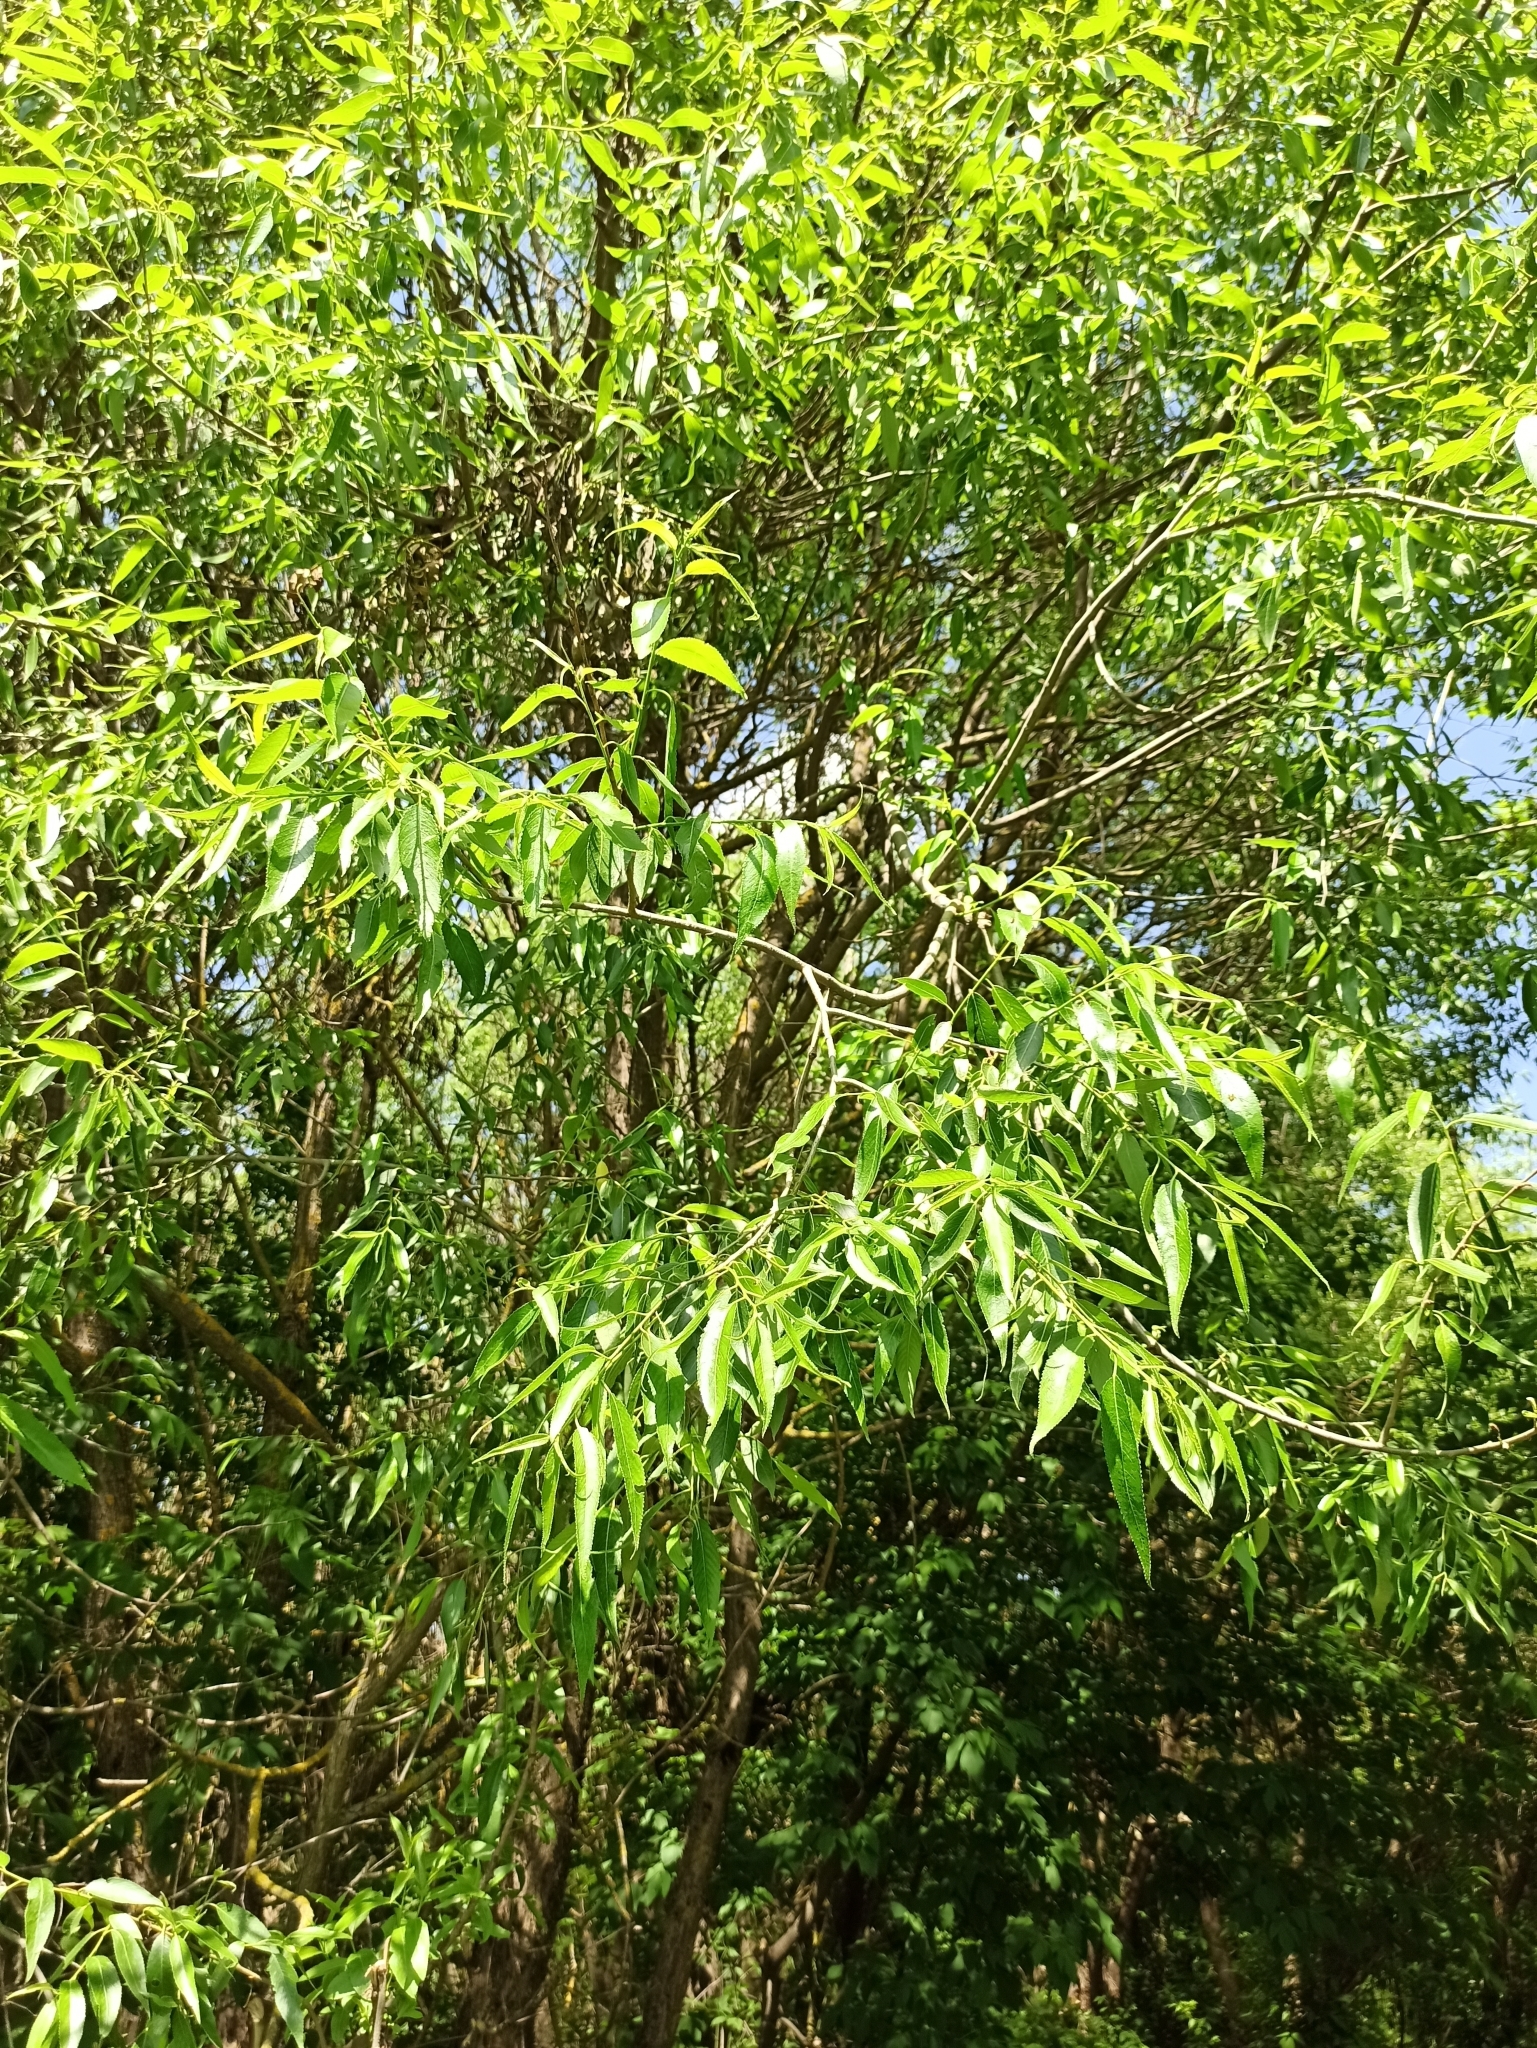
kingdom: Plantae
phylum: Tracheophyta
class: Magnoliopsida
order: Malpighiales
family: Salicaceae
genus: Salix
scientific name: Salix fragilis
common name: Crack willow
